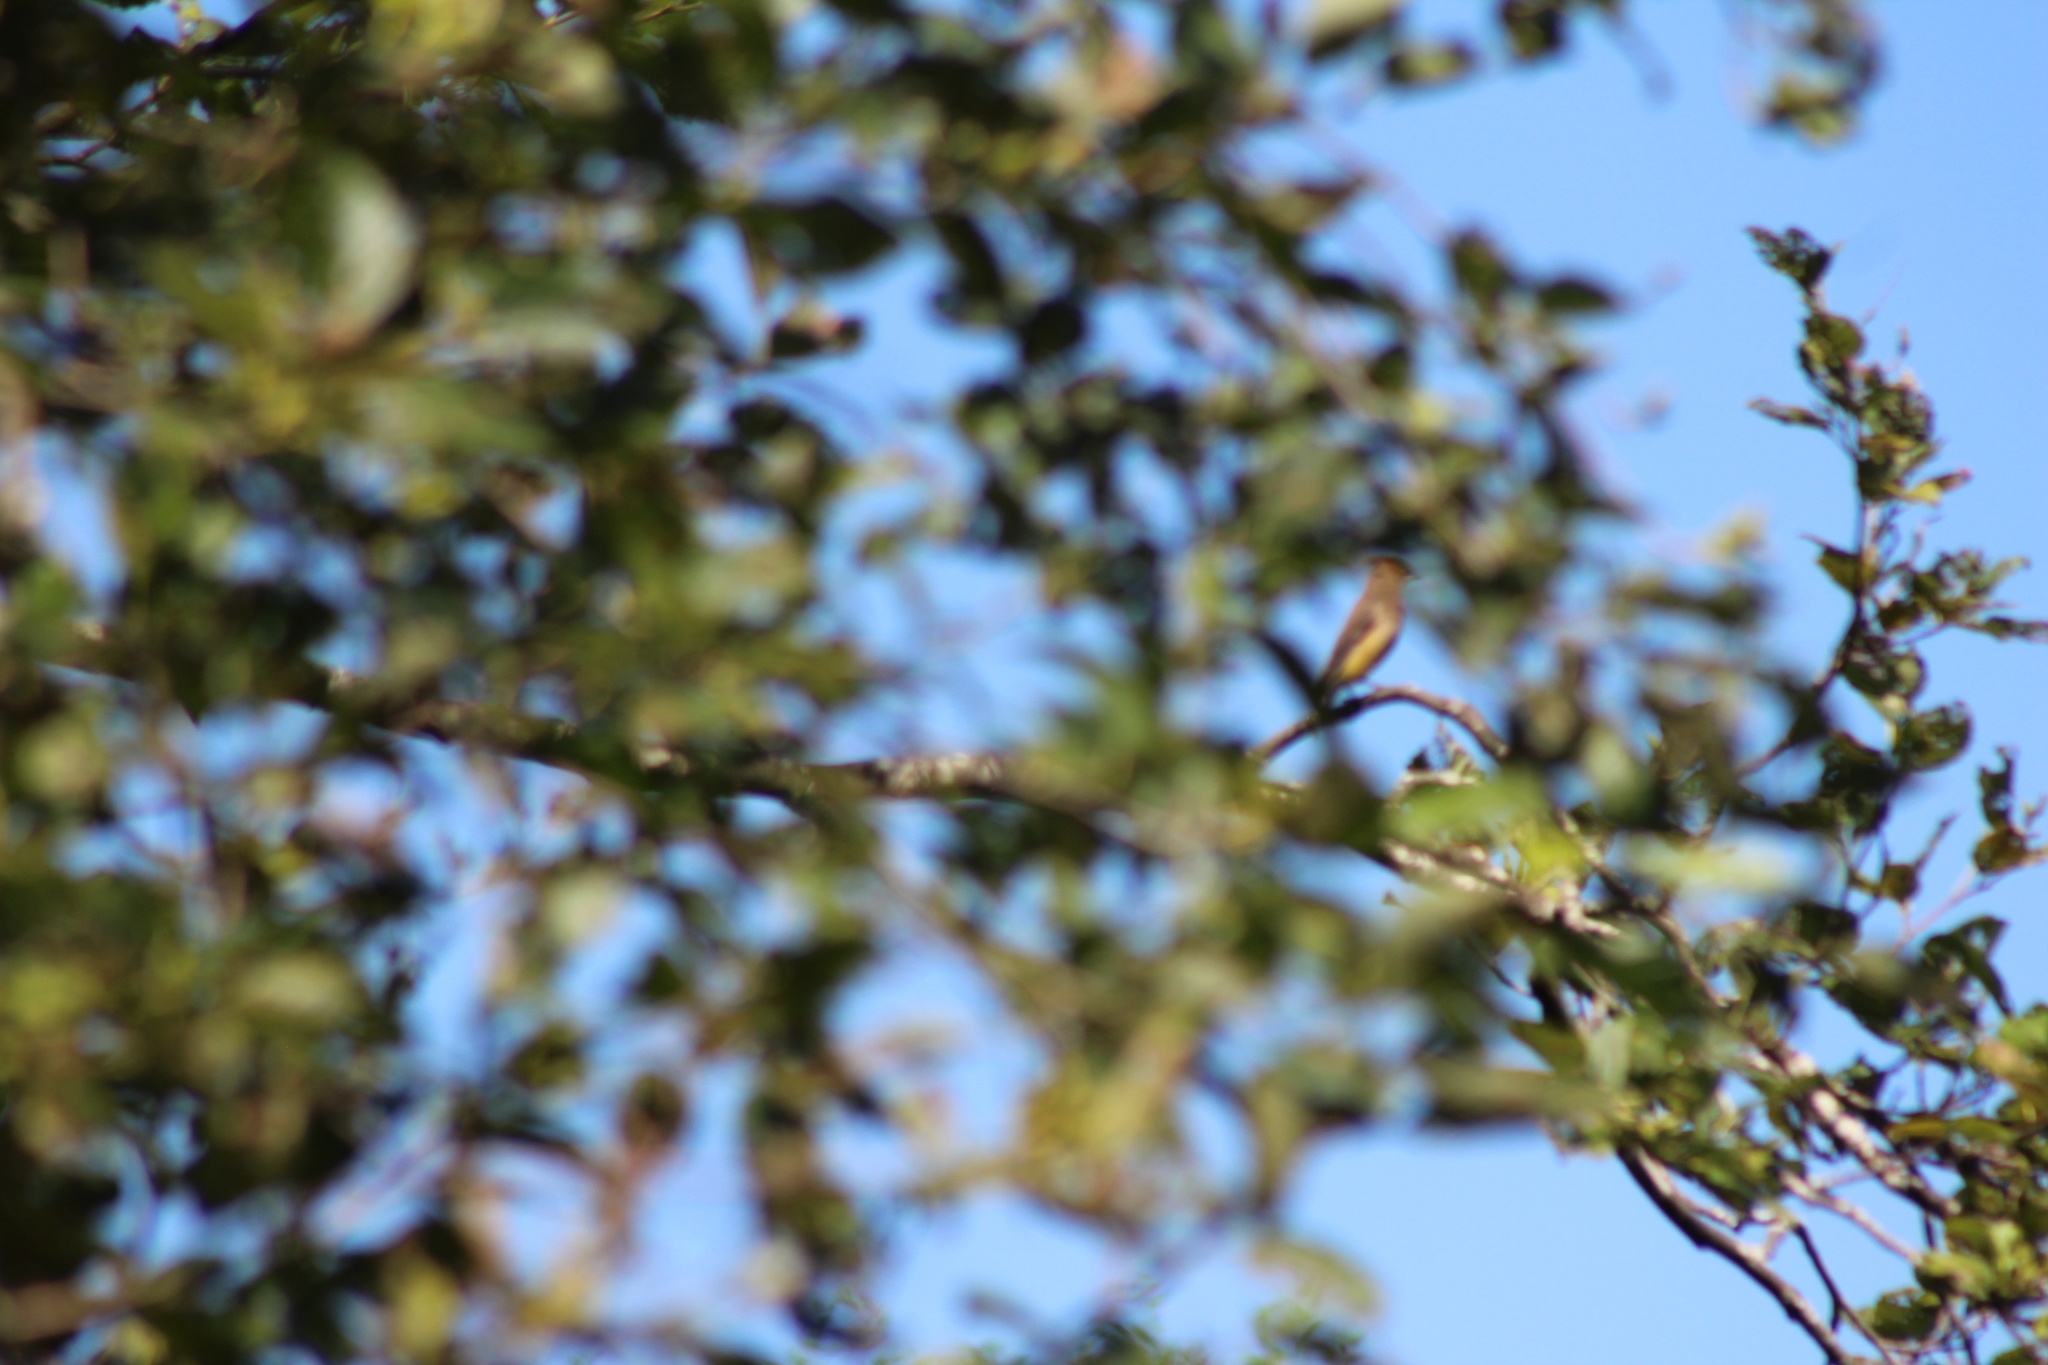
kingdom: Animalia
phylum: Chordata
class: Aves
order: Passeriformes
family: Bombycillidae
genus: Bombycilla
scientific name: Bombycilla cedrorum
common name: Cedar waxwing
